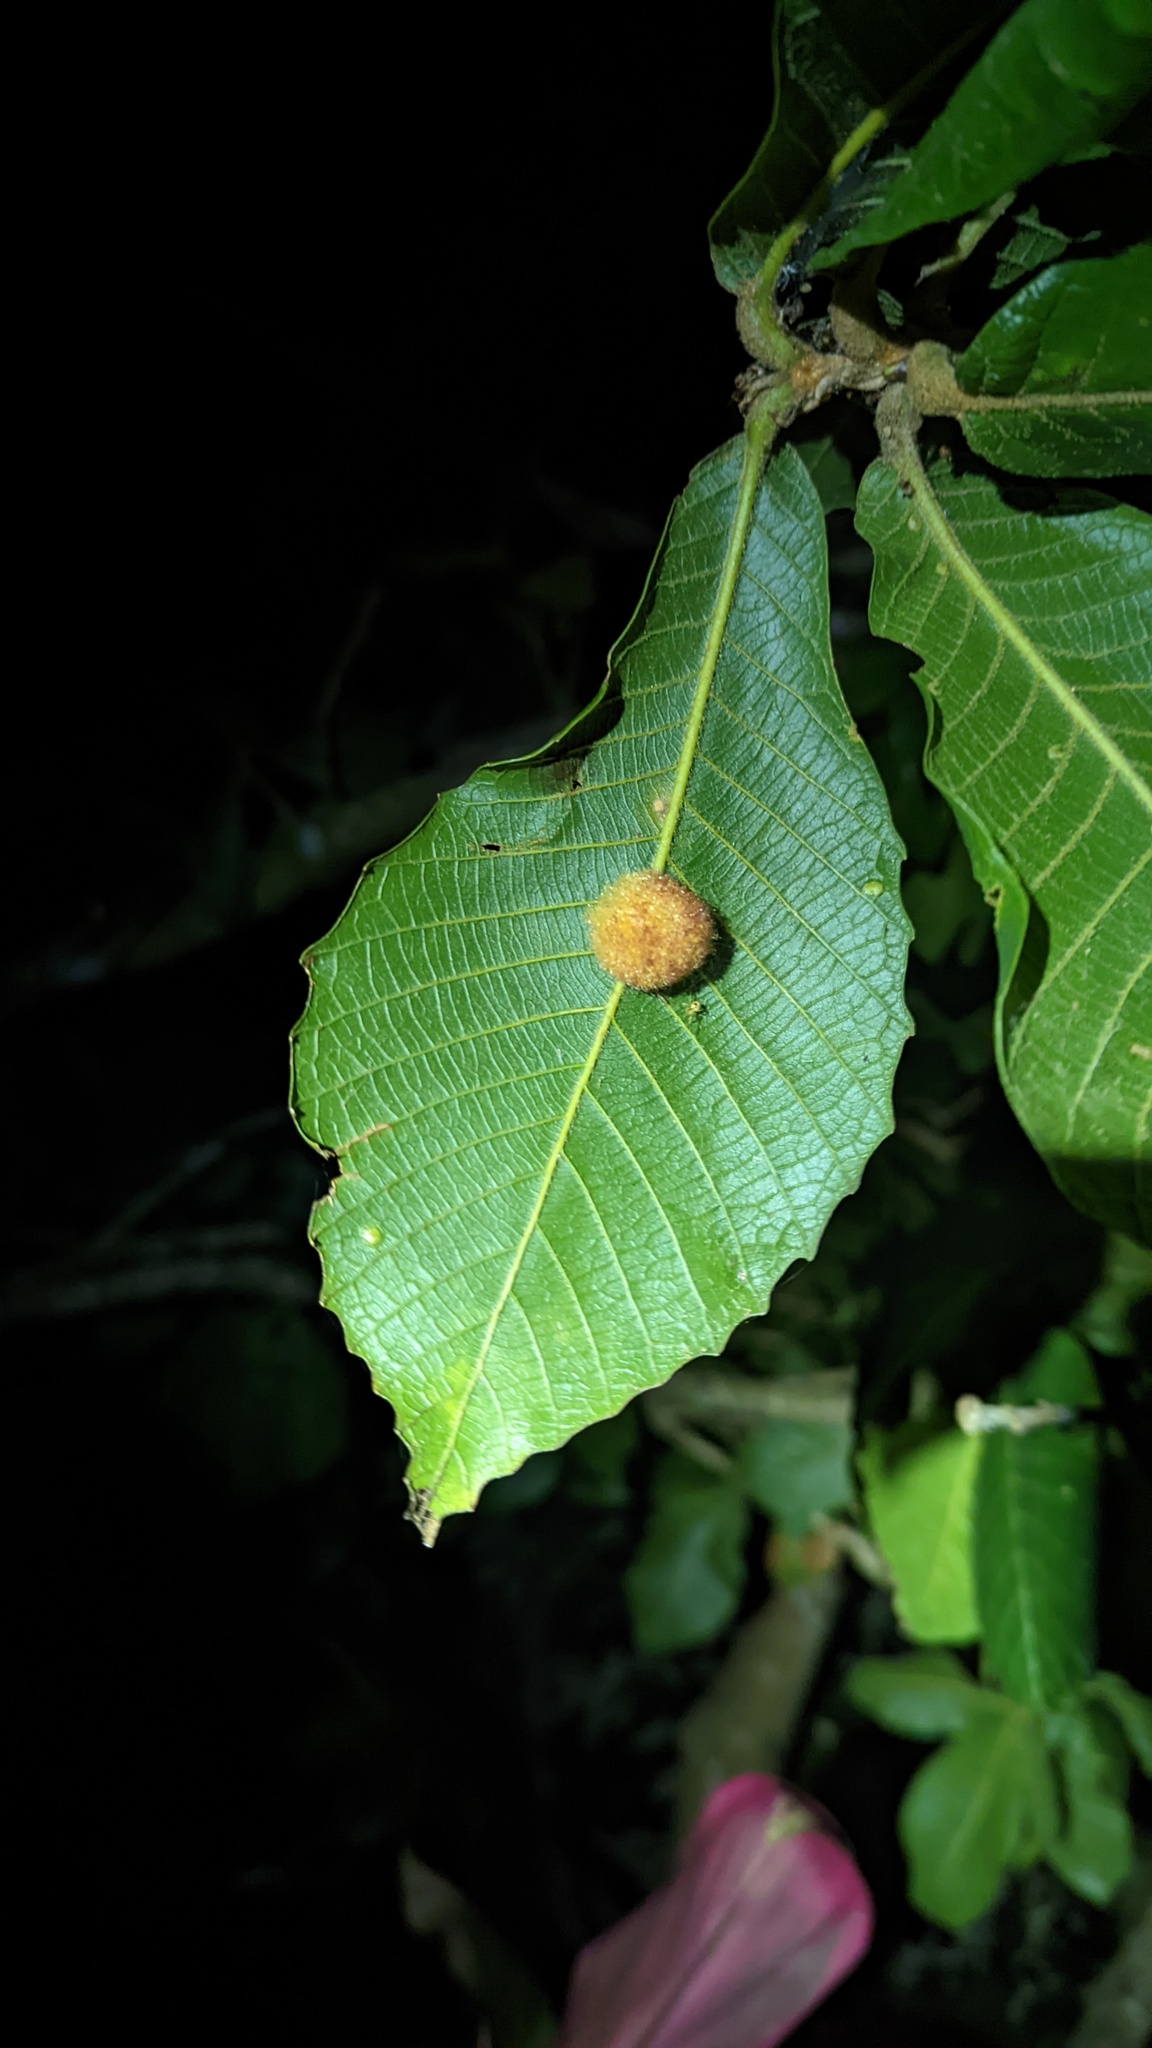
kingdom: Animalia
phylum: Arthropoda
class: Insecta
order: Hymenoptera
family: Cynipidae
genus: Striatoandricus
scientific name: Striatoandricus
